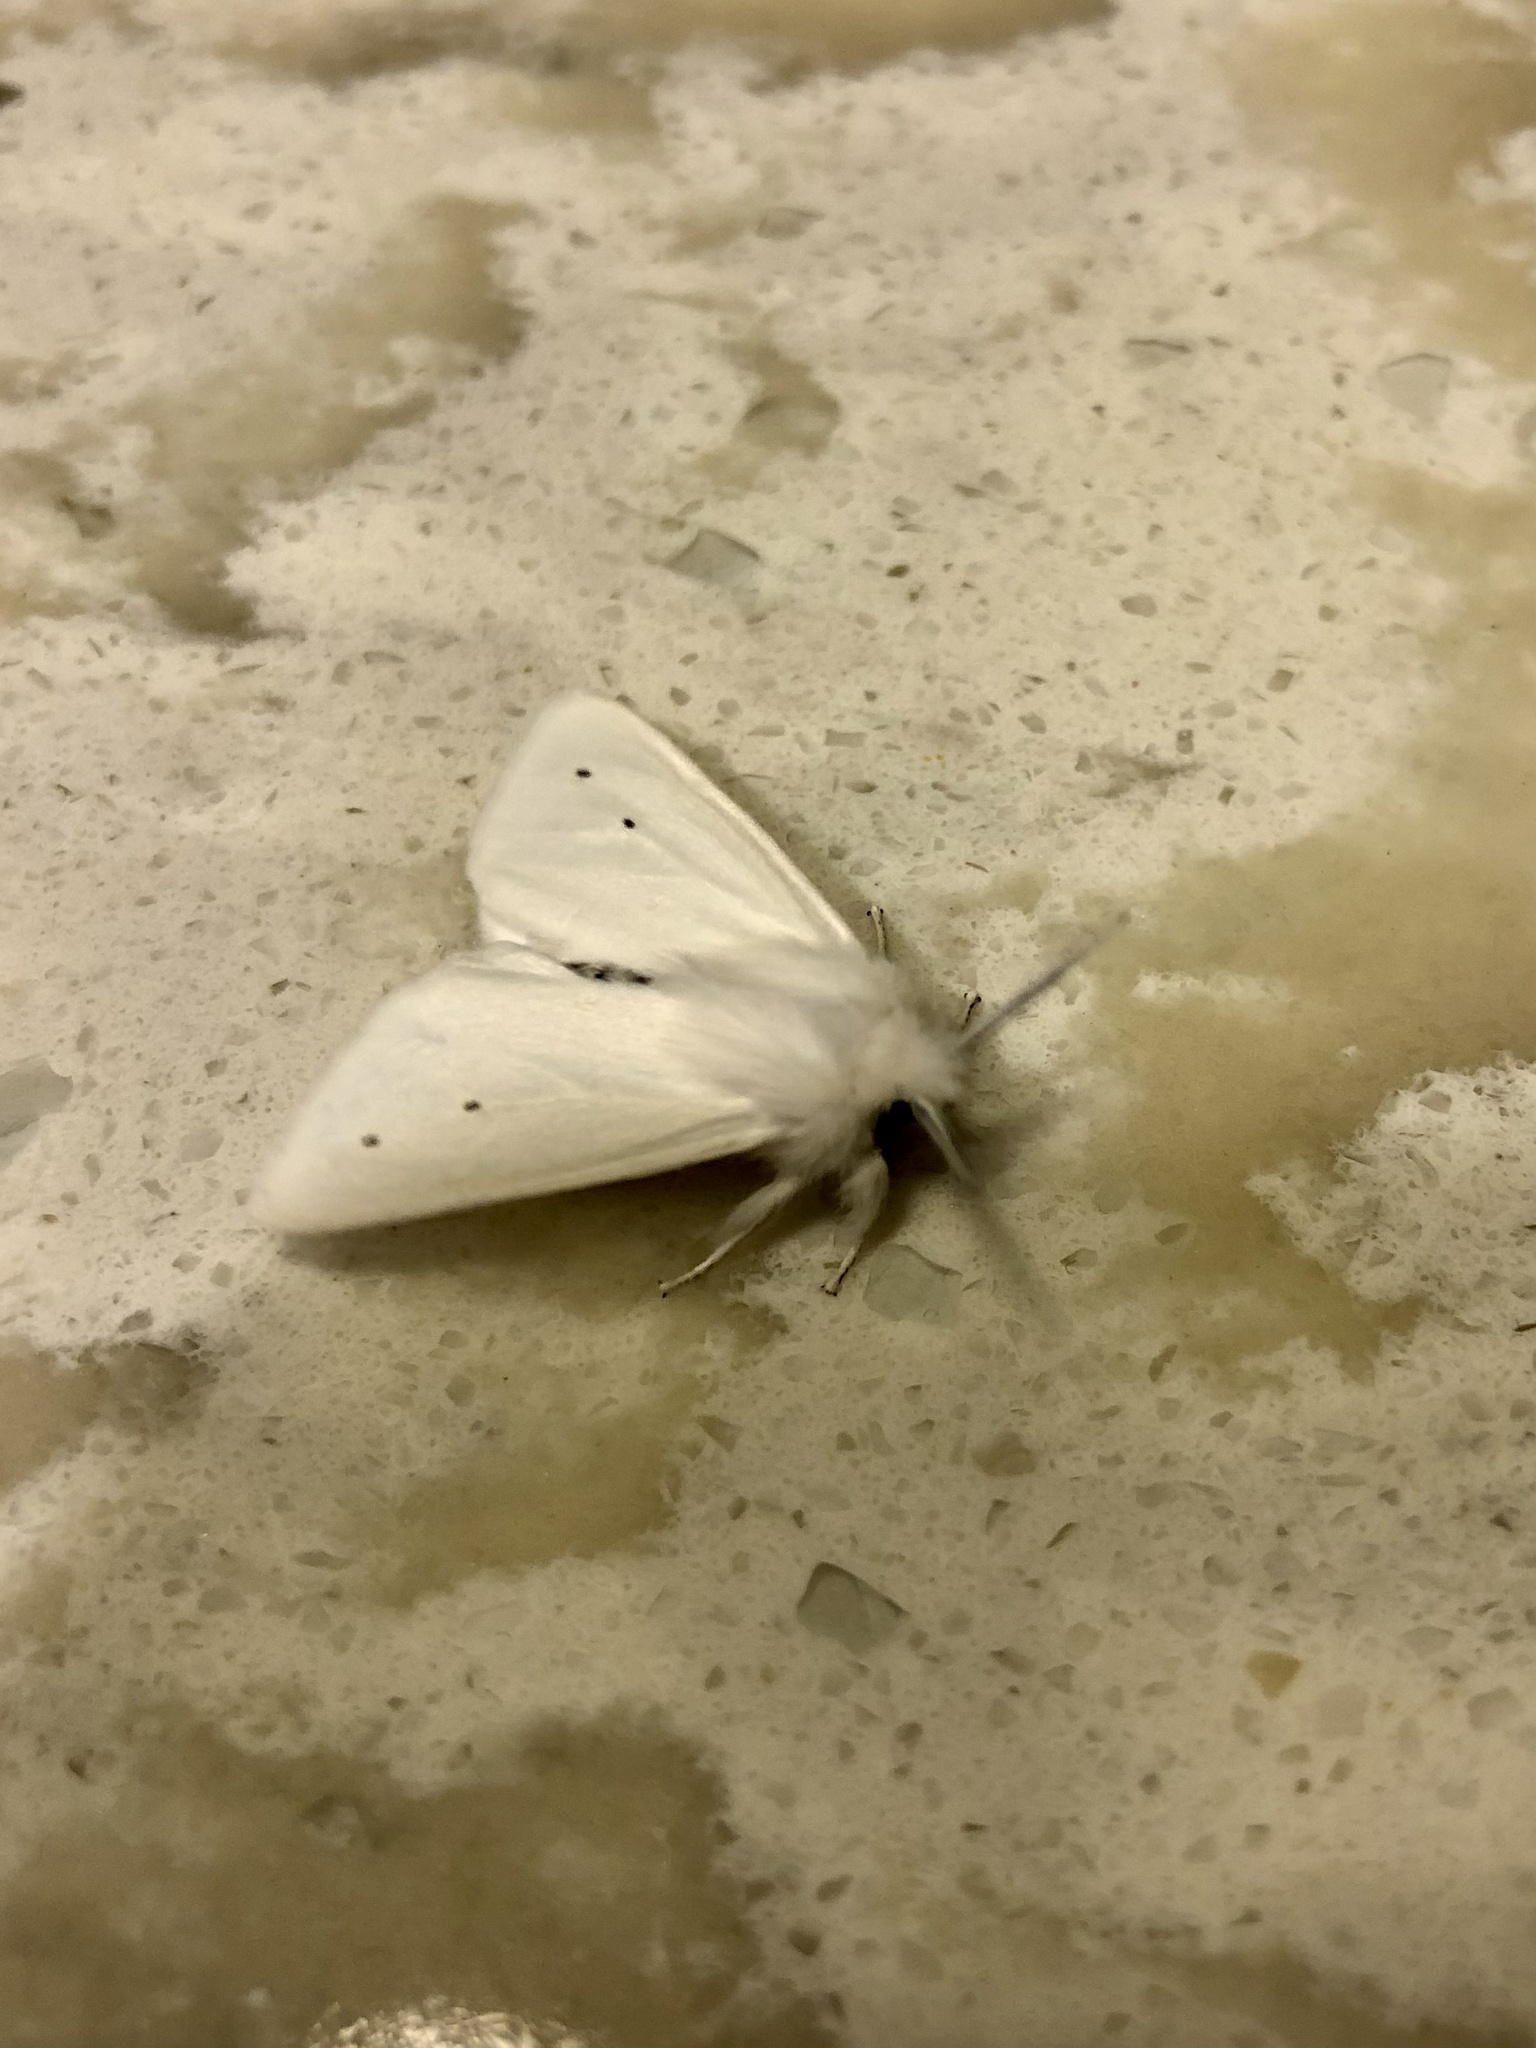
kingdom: Animalia
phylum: Arthropoda
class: Insecta
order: Lepidoptera
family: Erebidae
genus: Spilosoma
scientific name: Spilosoma virginica
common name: Virginia tiger moth
